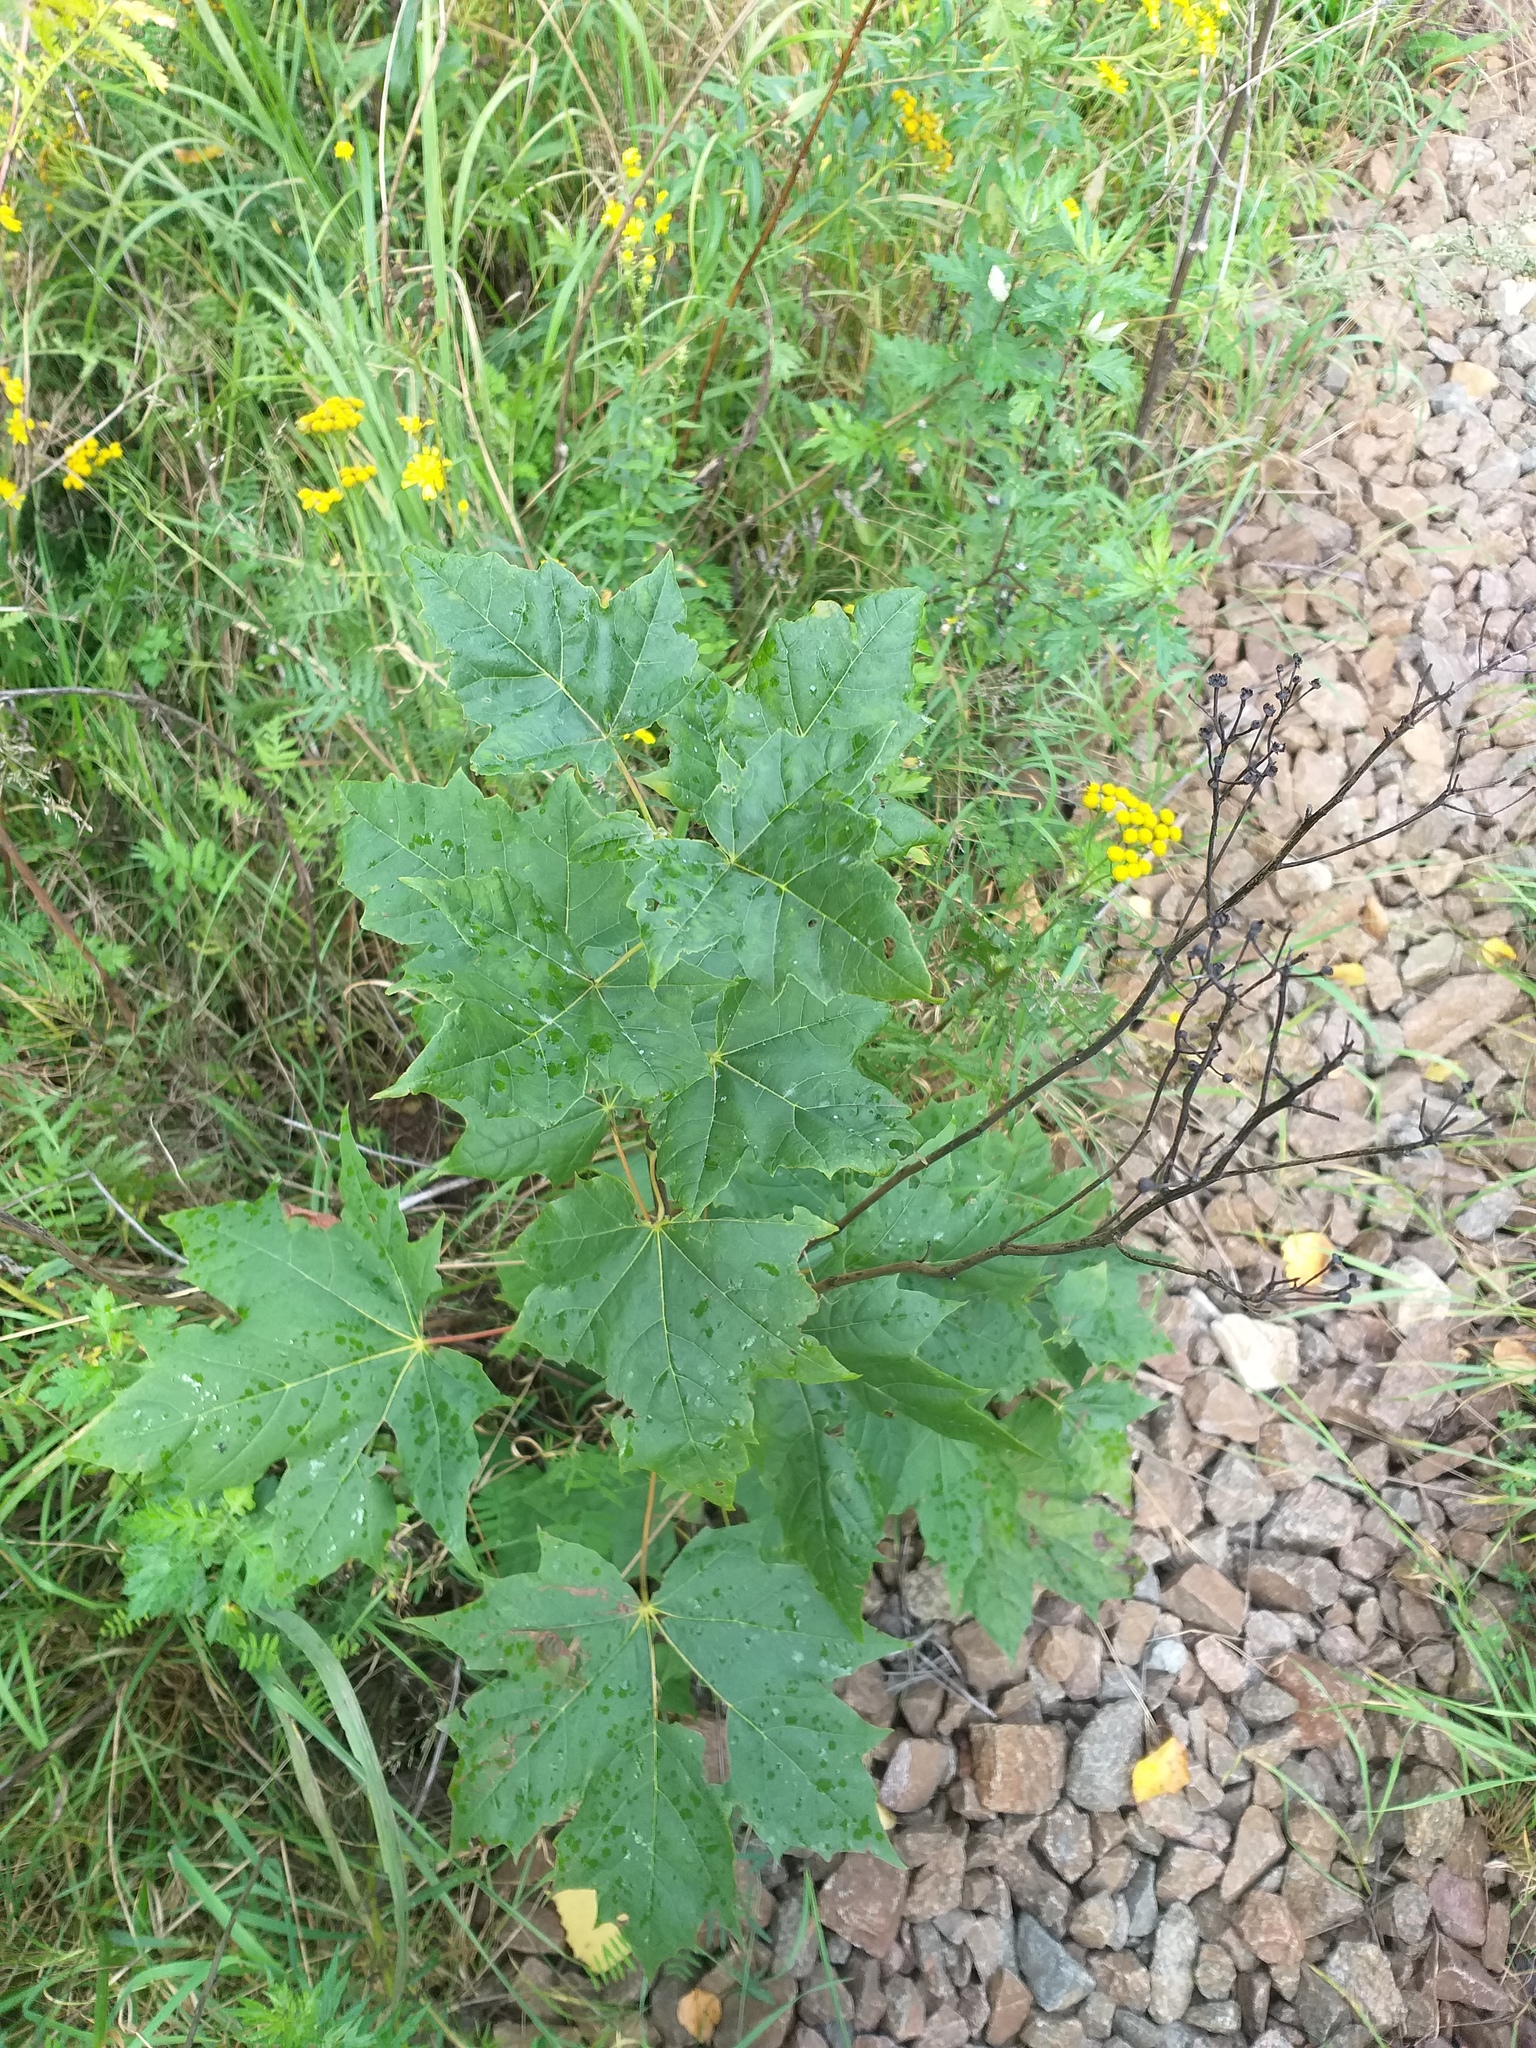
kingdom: Plantae
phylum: Tracheophyta
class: Magnoliopsida
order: Sapindales
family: Sapindaceae
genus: Acer
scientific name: Acer platanoides
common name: Norway maple
